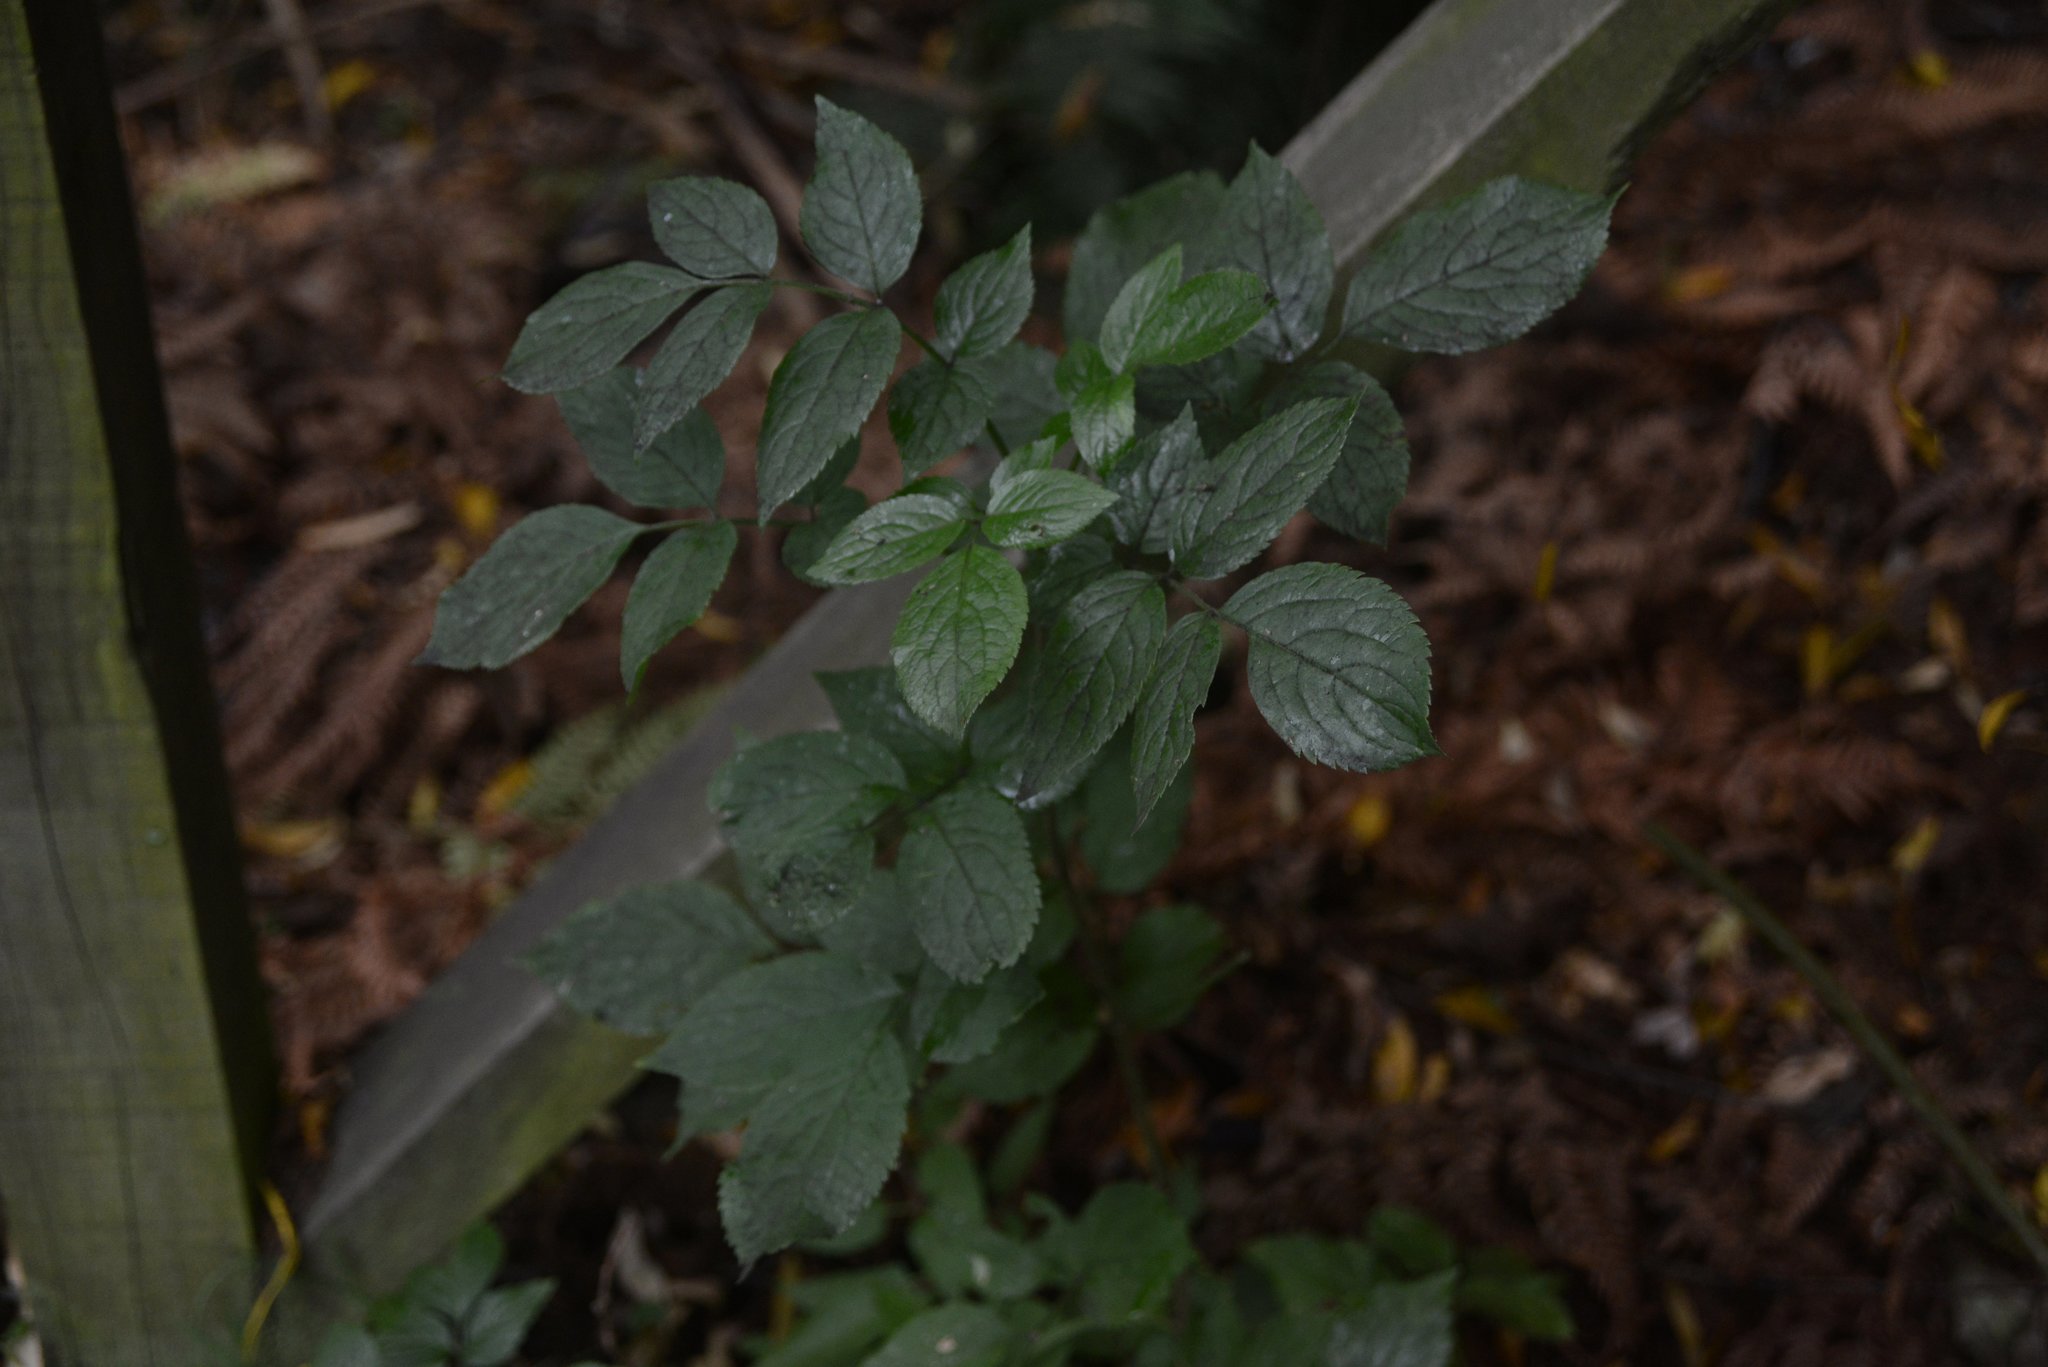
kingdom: Plantae
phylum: Tracheophyta
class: Magnoliopsida
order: Dipsacales
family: Viburnaceae
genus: Sambucus
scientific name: Sambucus nigra
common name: Elder
